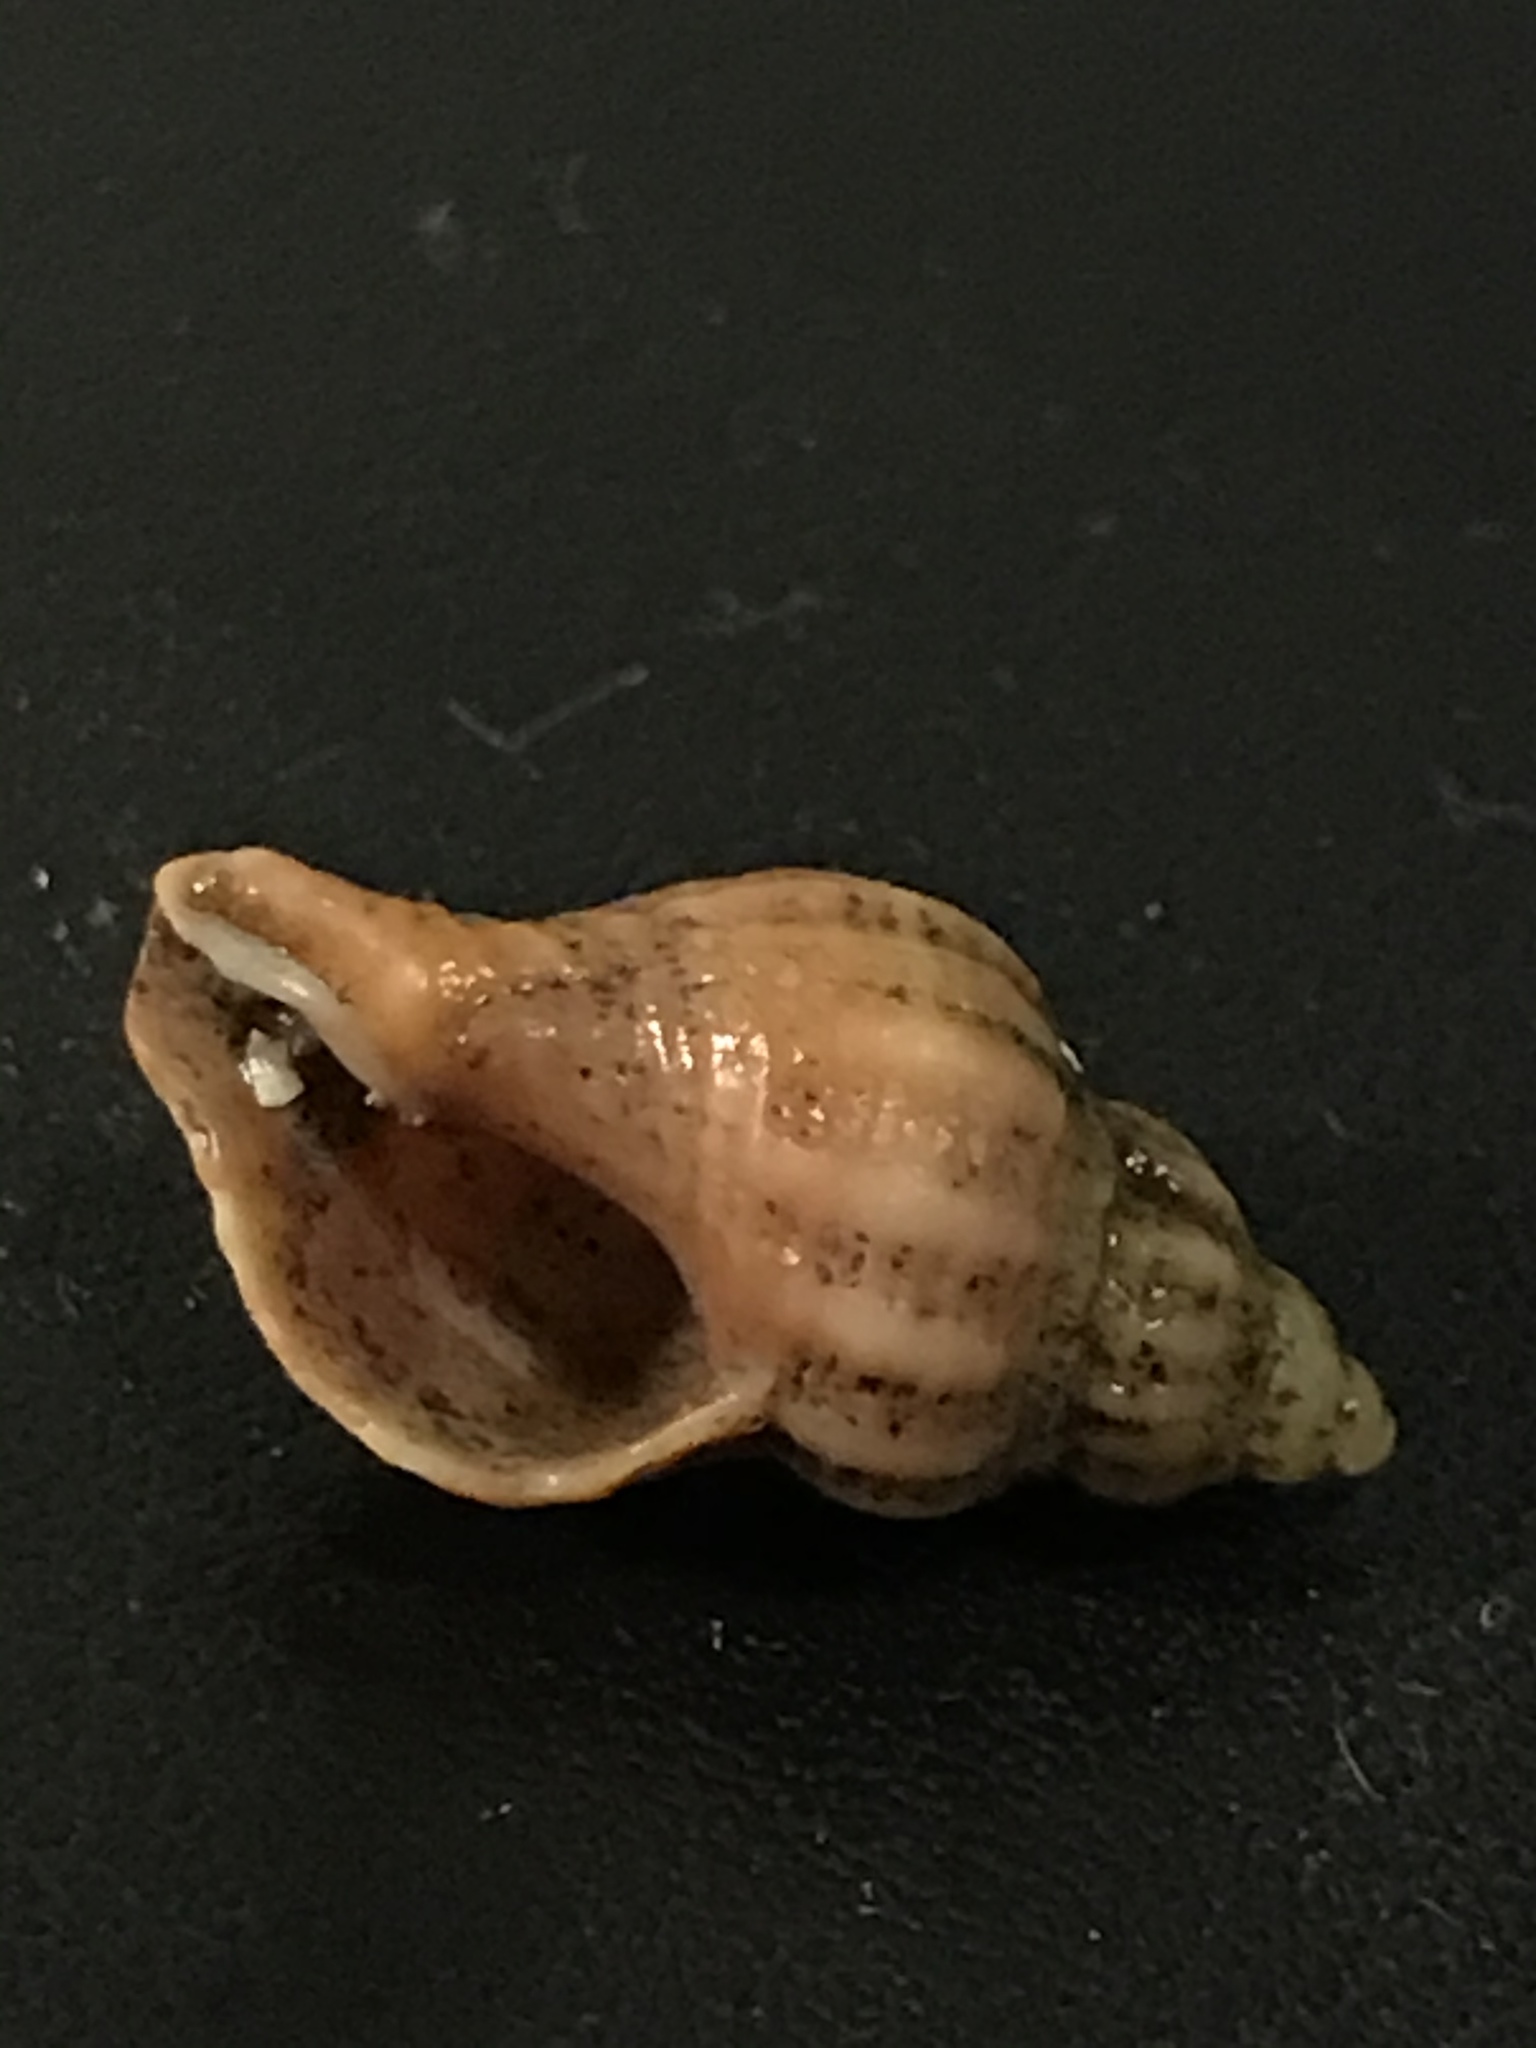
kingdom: Animalia
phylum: Mollusca
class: Gastropoda
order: Neogastropoda
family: Muricidae
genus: Urosalpinx
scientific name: Urosalpinx cinerea
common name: American sting winkle
